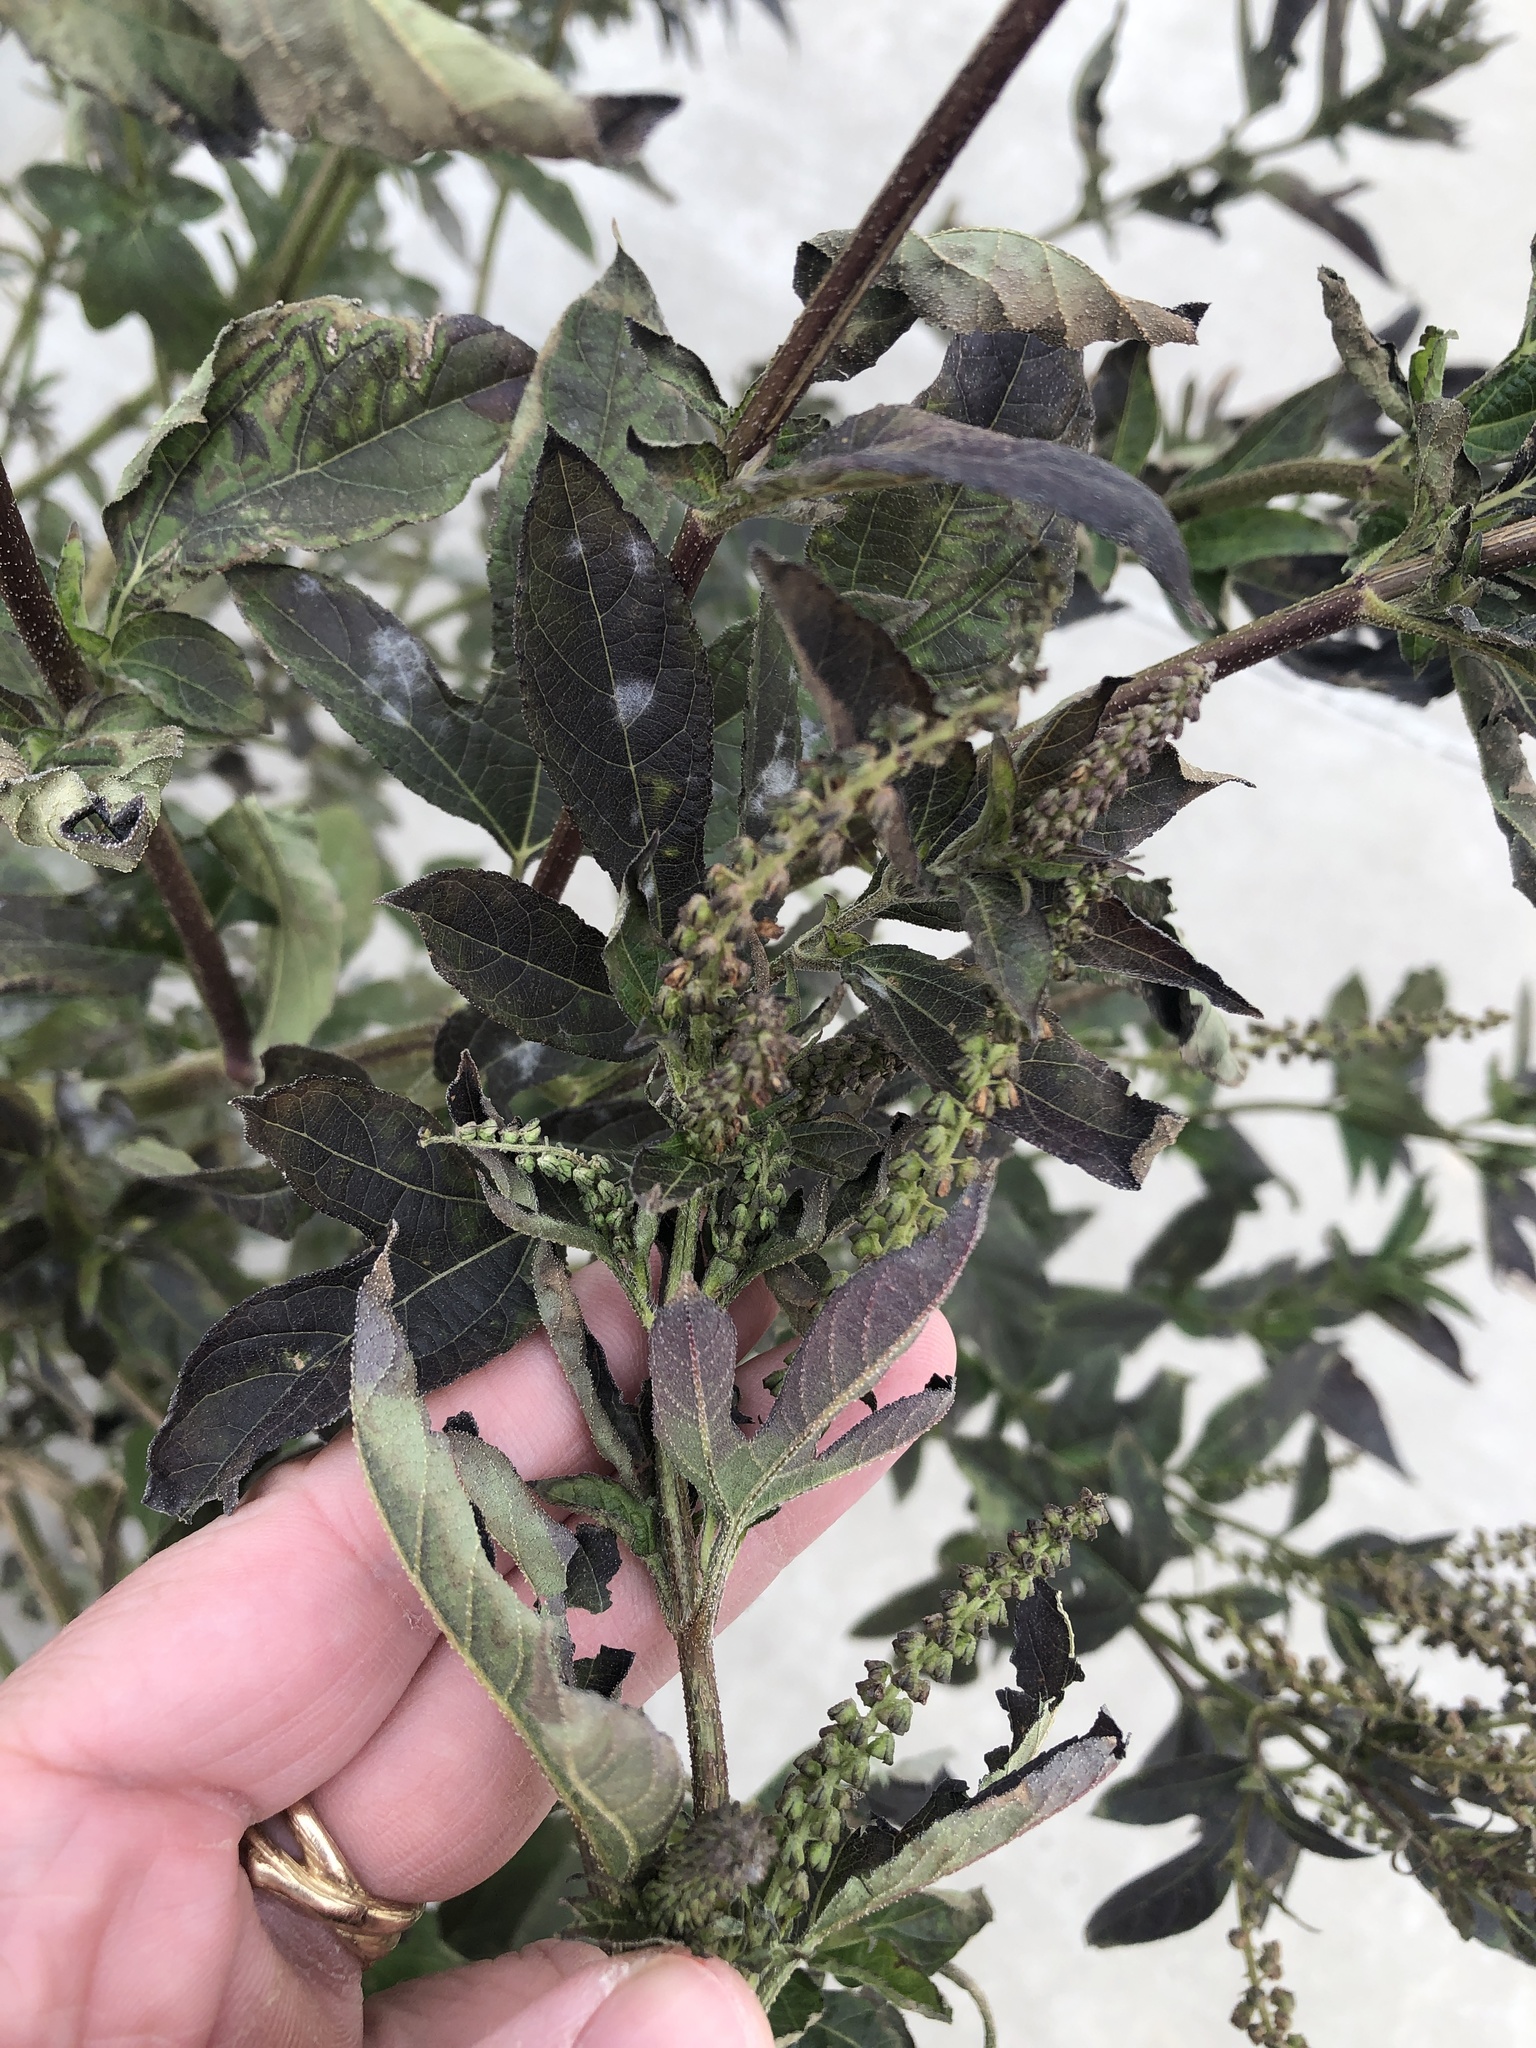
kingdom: Plantae
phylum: Tracheophyta
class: Magnoliopsida
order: Asterales
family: Asteraceae
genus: Ambrosia
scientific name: Ambrosia trifida
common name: Giant ragweed
